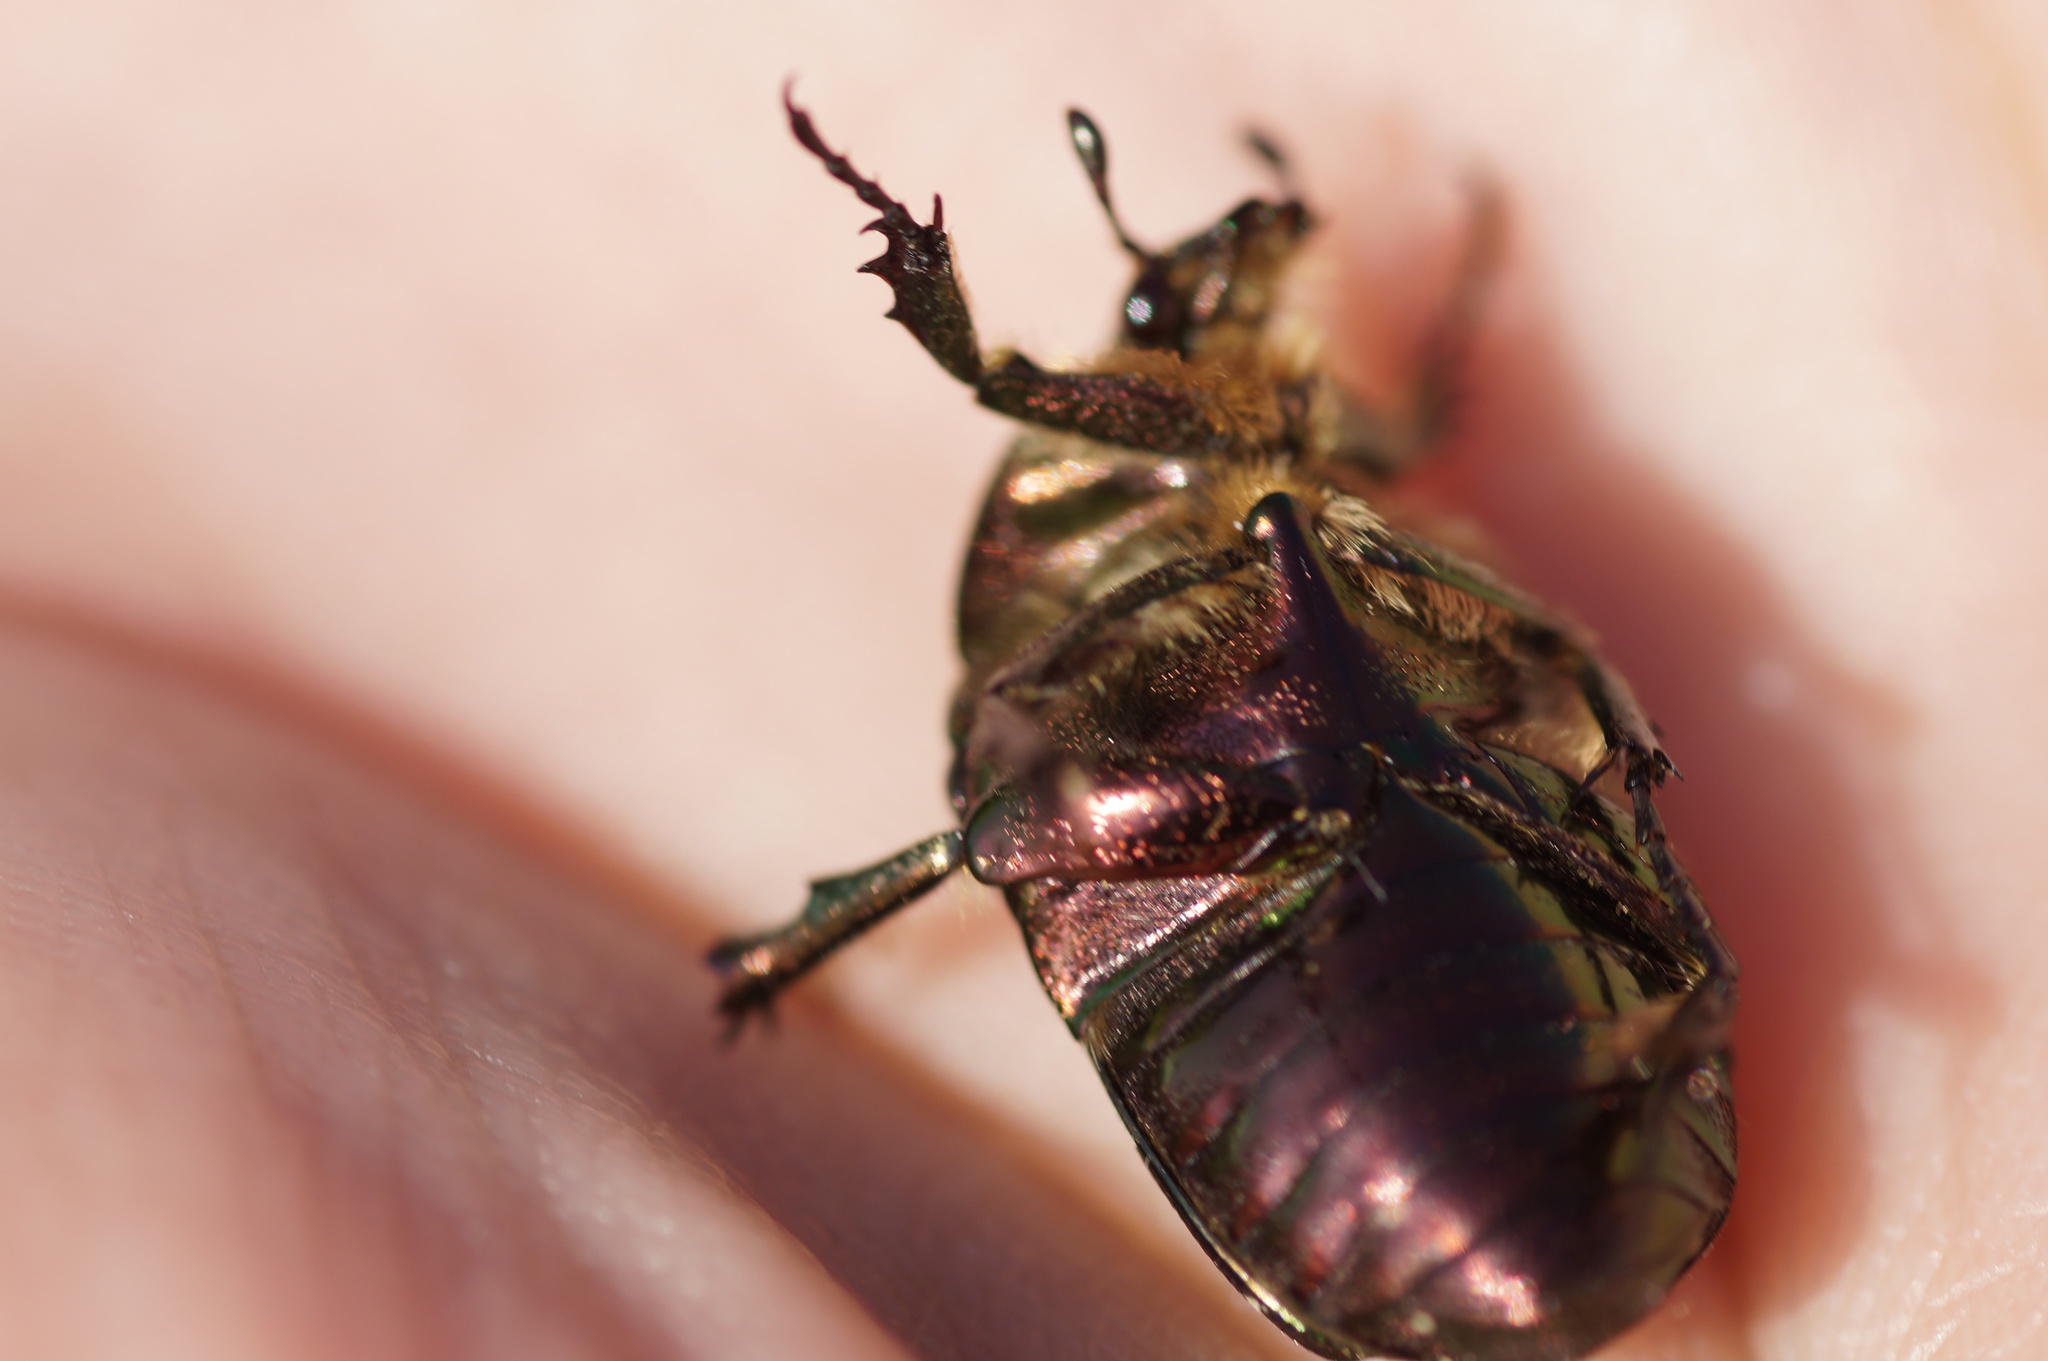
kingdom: Animalia
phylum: Arthropoda
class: Insecta
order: Coleoptera
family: Scarabaeidae
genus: Cetonia
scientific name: Cetonia aurata
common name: Rose chafer
